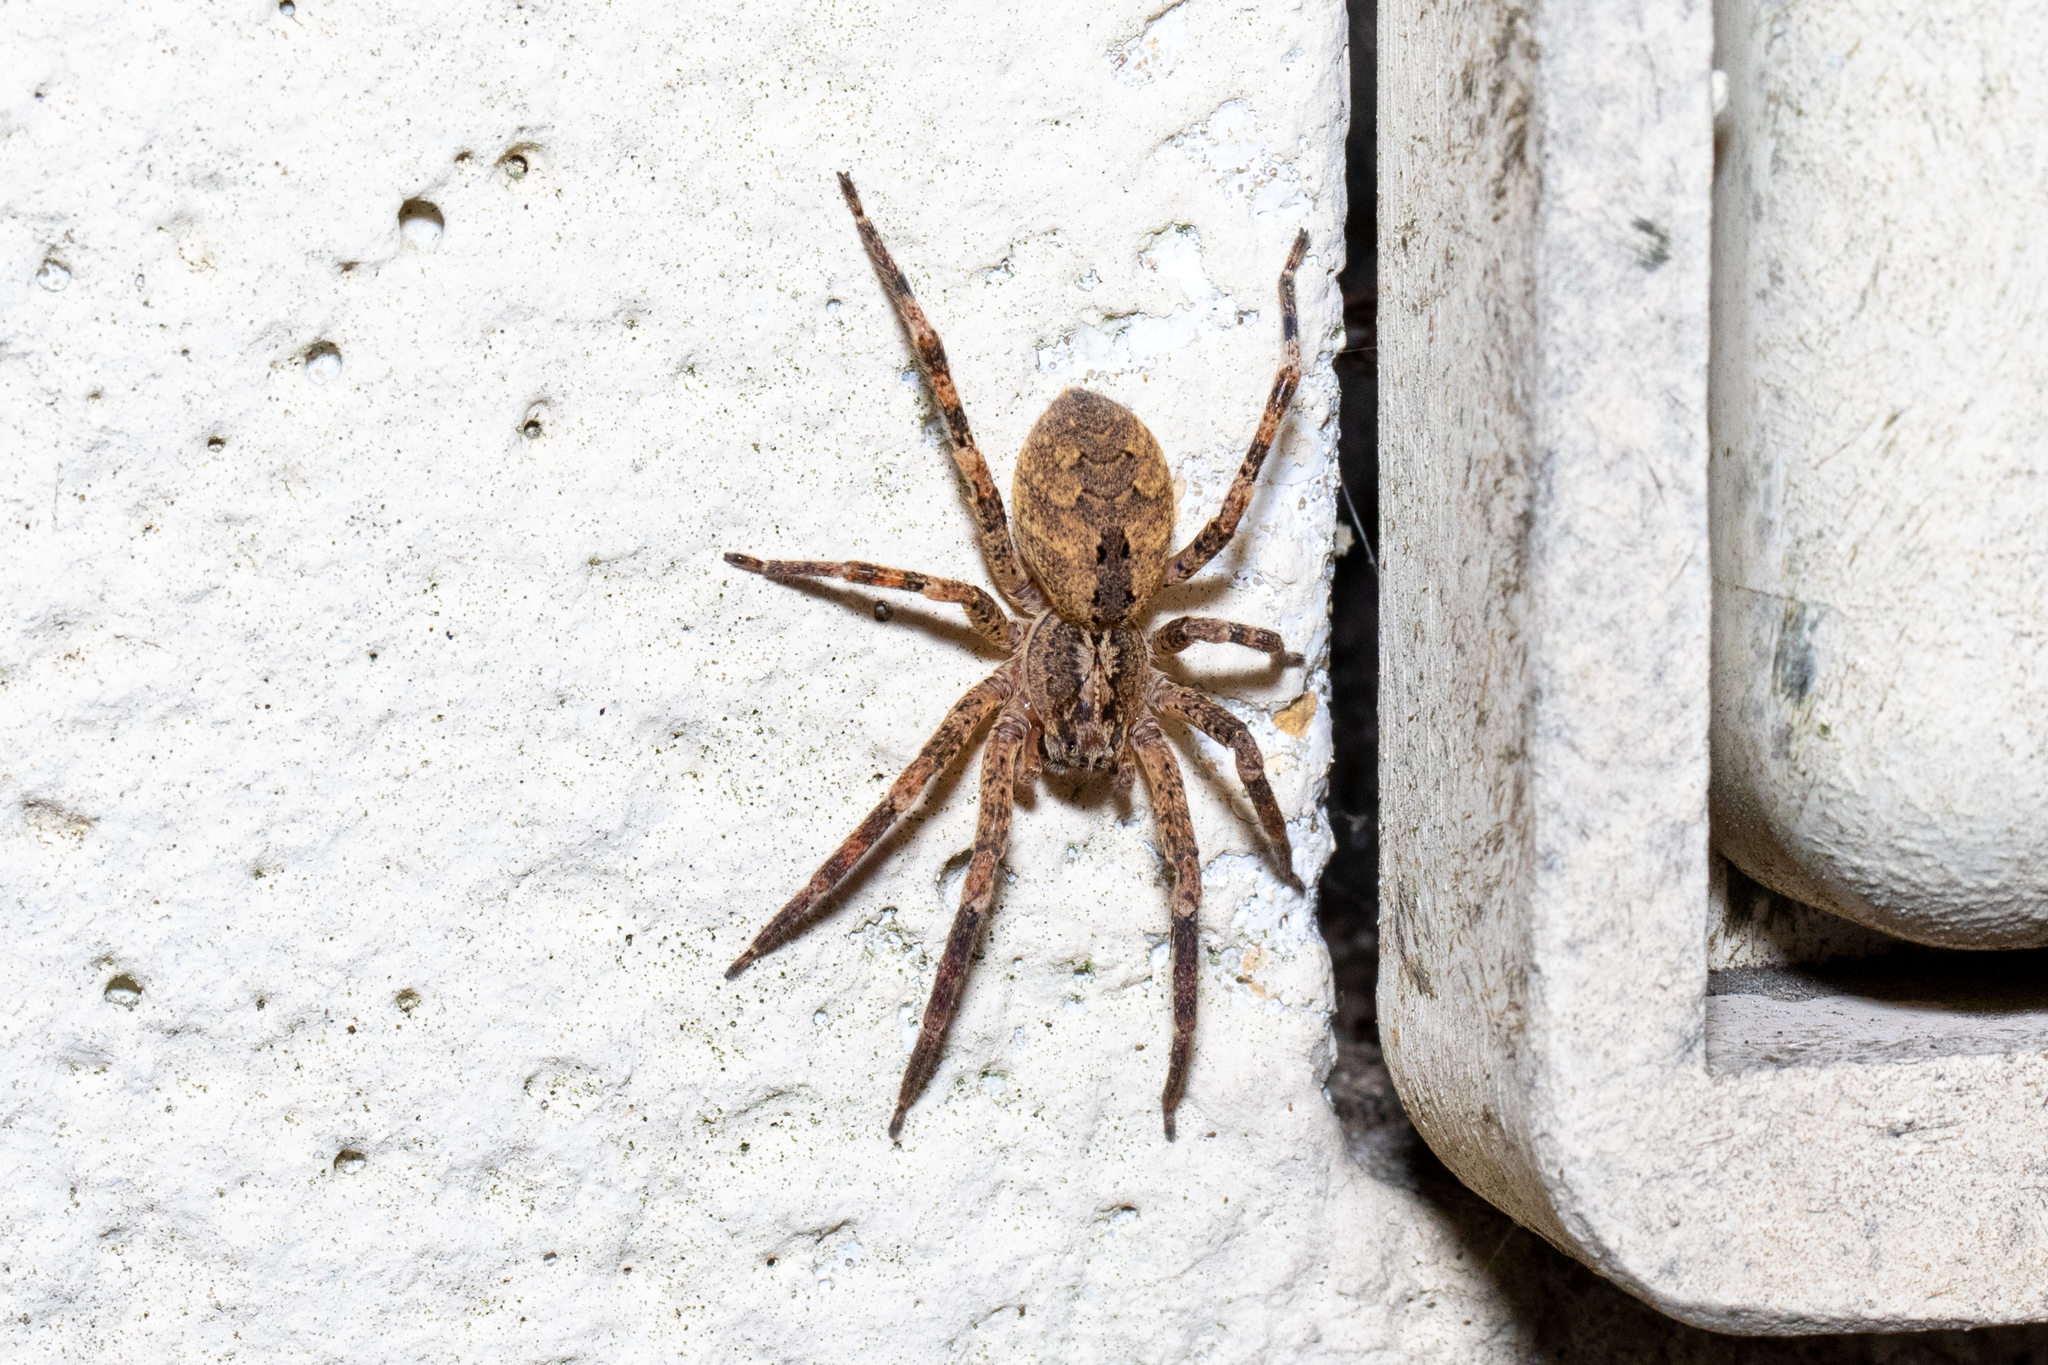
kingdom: Animalia
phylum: Arthropoda
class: Arachnida
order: Araneae
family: Zoropsidae
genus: Zoropsis
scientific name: Zoropsis spinimana
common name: Zoropsid spider
